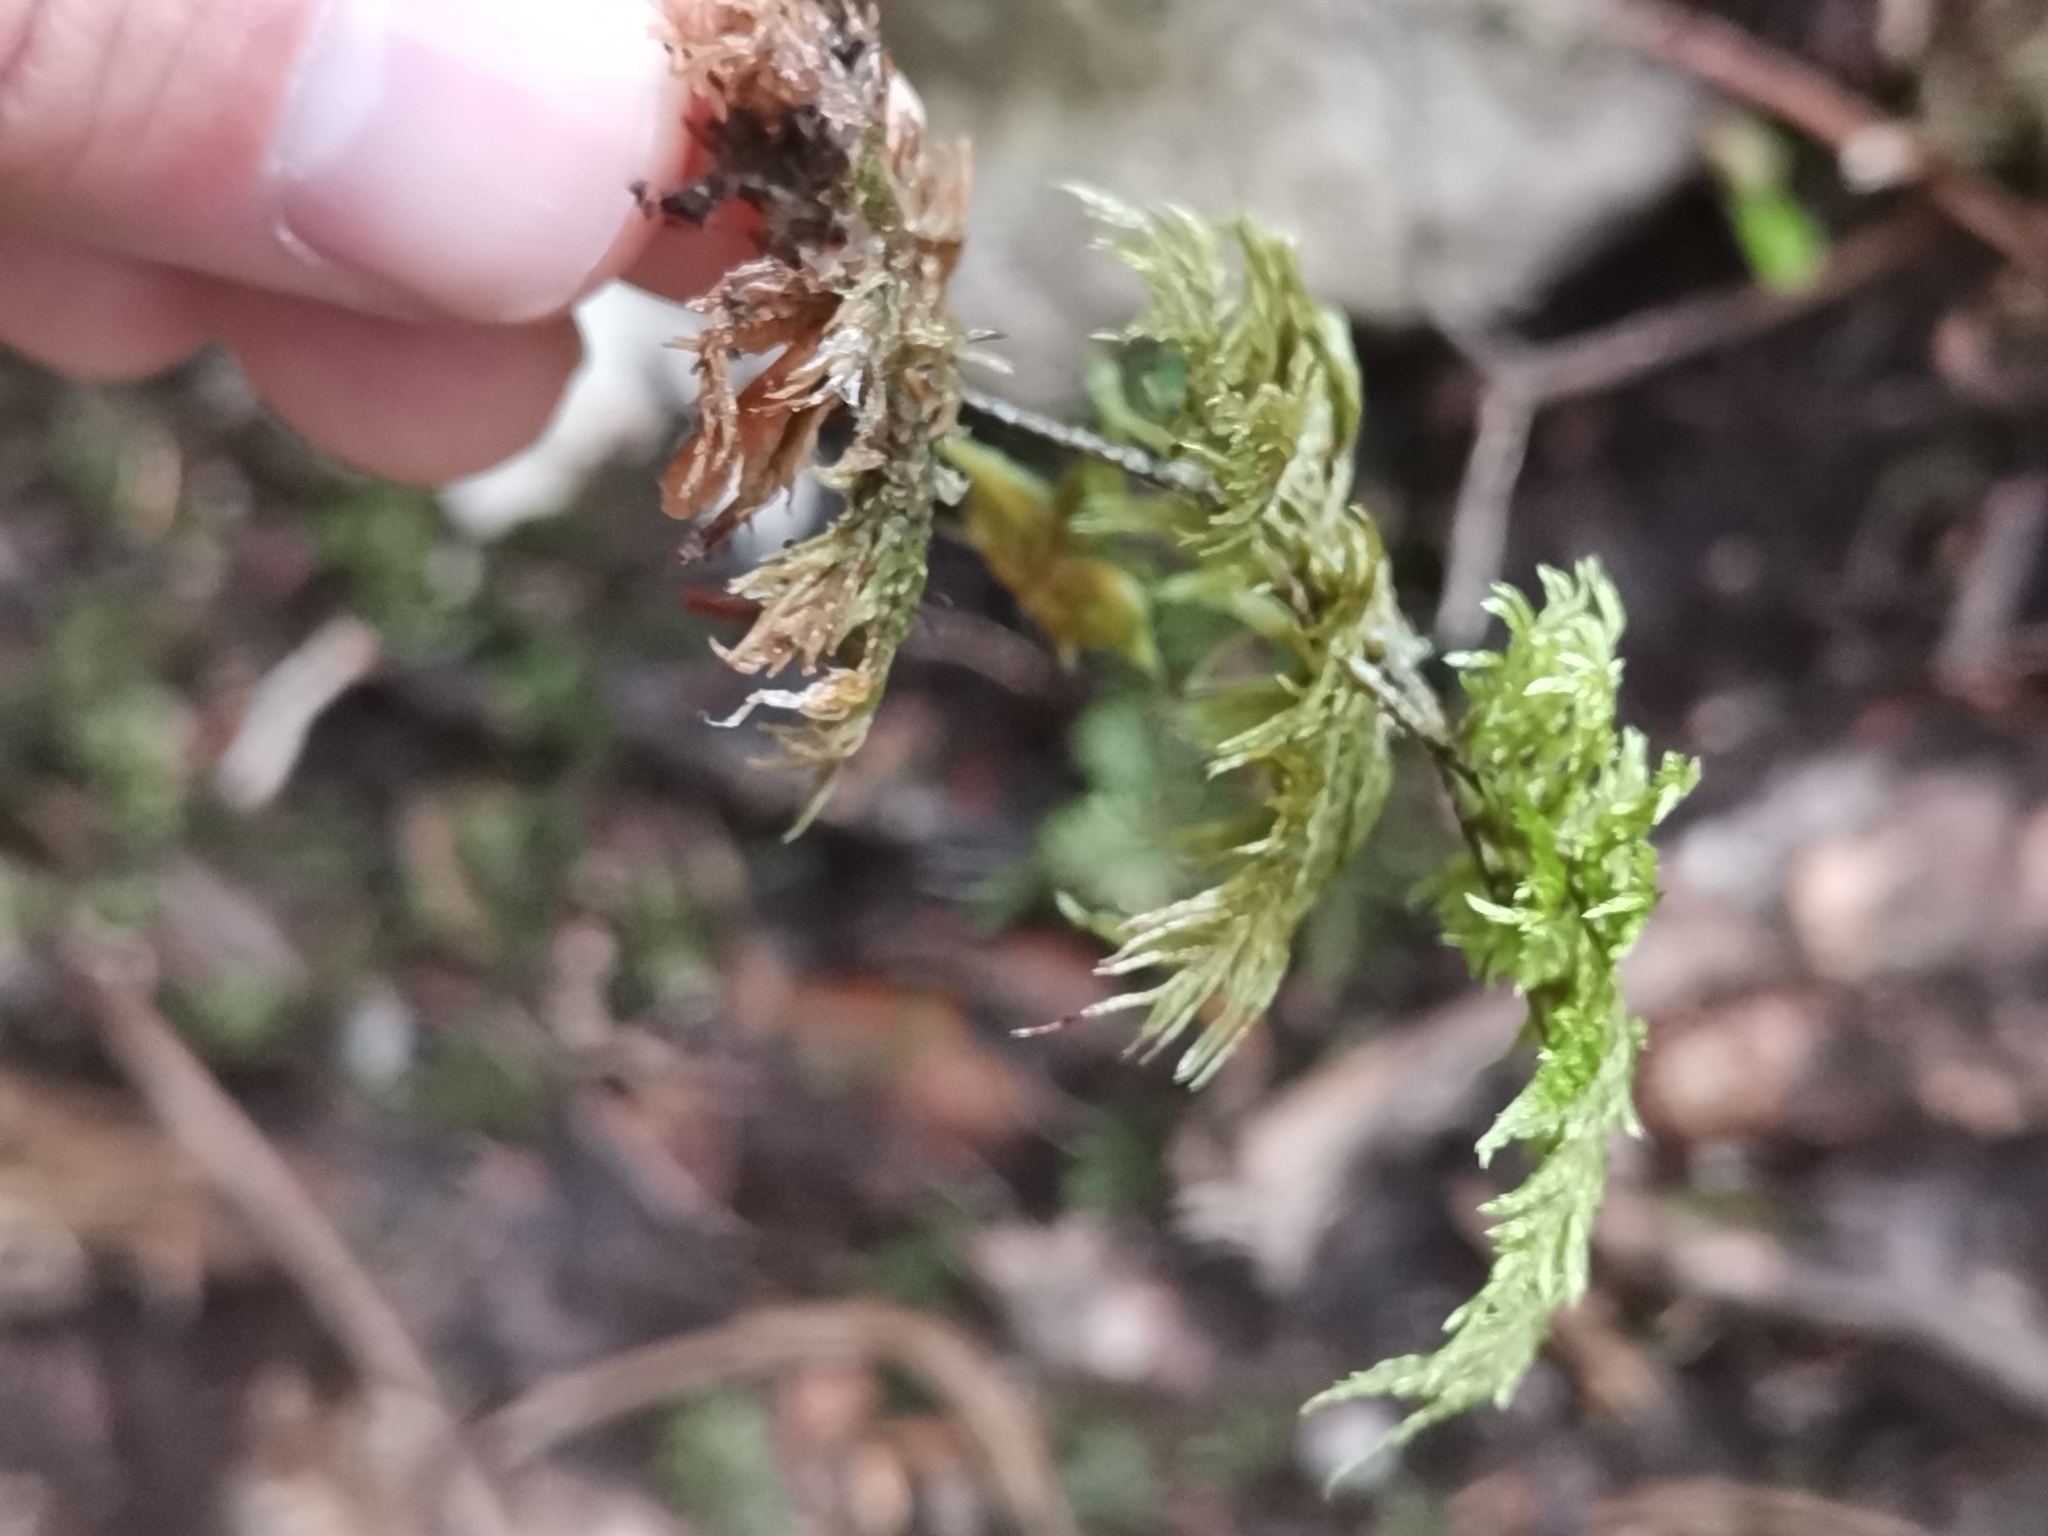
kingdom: Plantae
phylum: Bryophyta
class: Bryopsida
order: Hypnales
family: Hylocomiaceae
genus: Hylocomium
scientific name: Hylocomium splendens
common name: Stairstep moss
